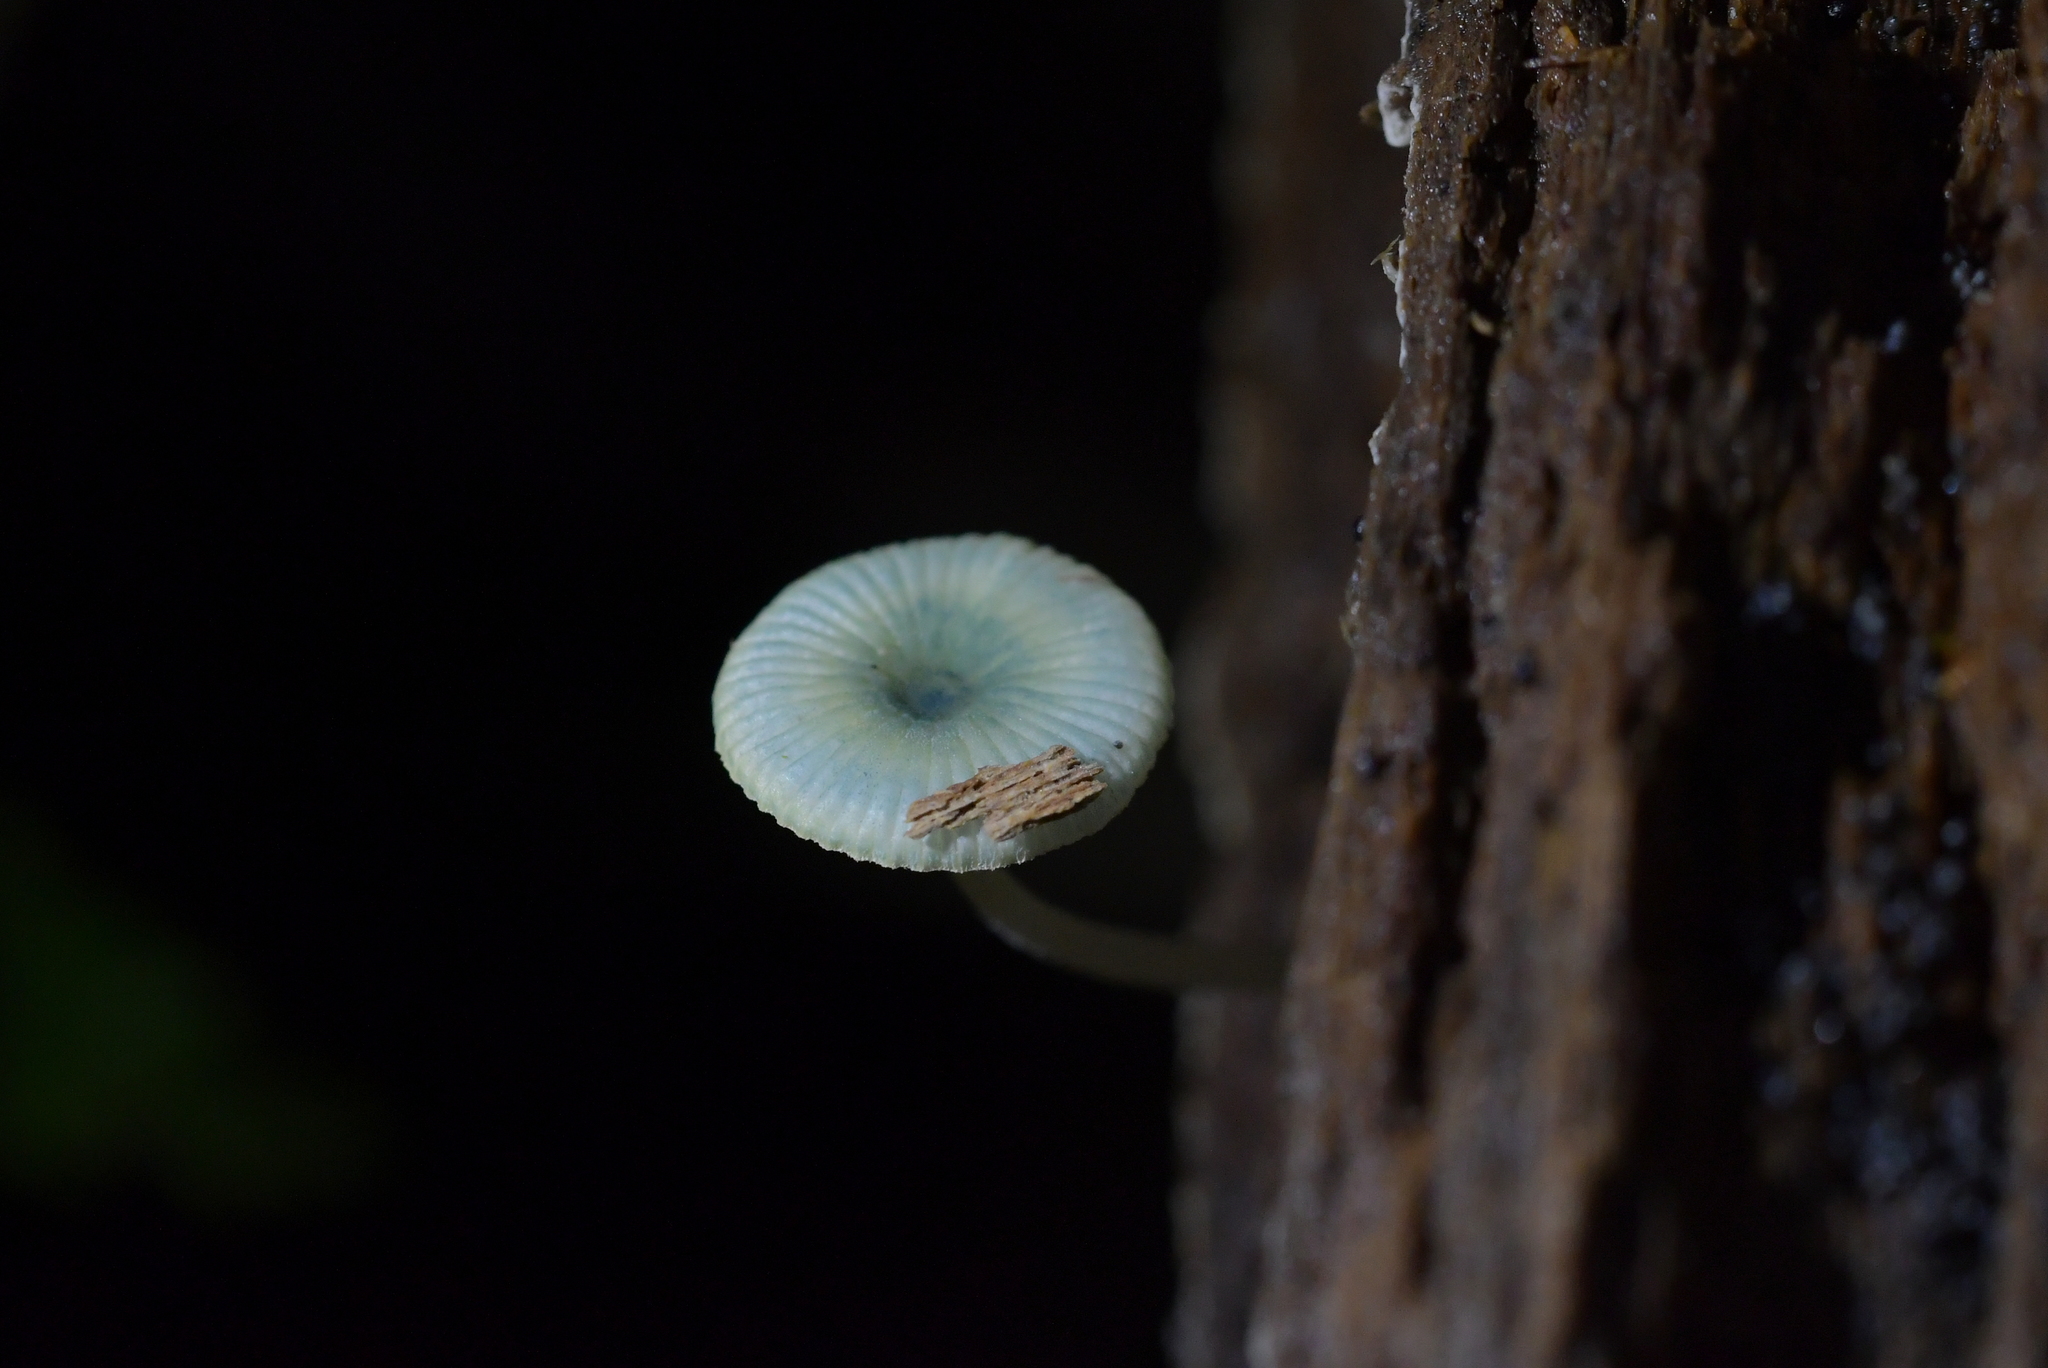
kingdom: Fungi
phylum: Basidiomycota
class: Agaricomycetes
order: Agaricales
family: Mycenaceae
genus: Mycena
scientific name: Mycena interrupta
